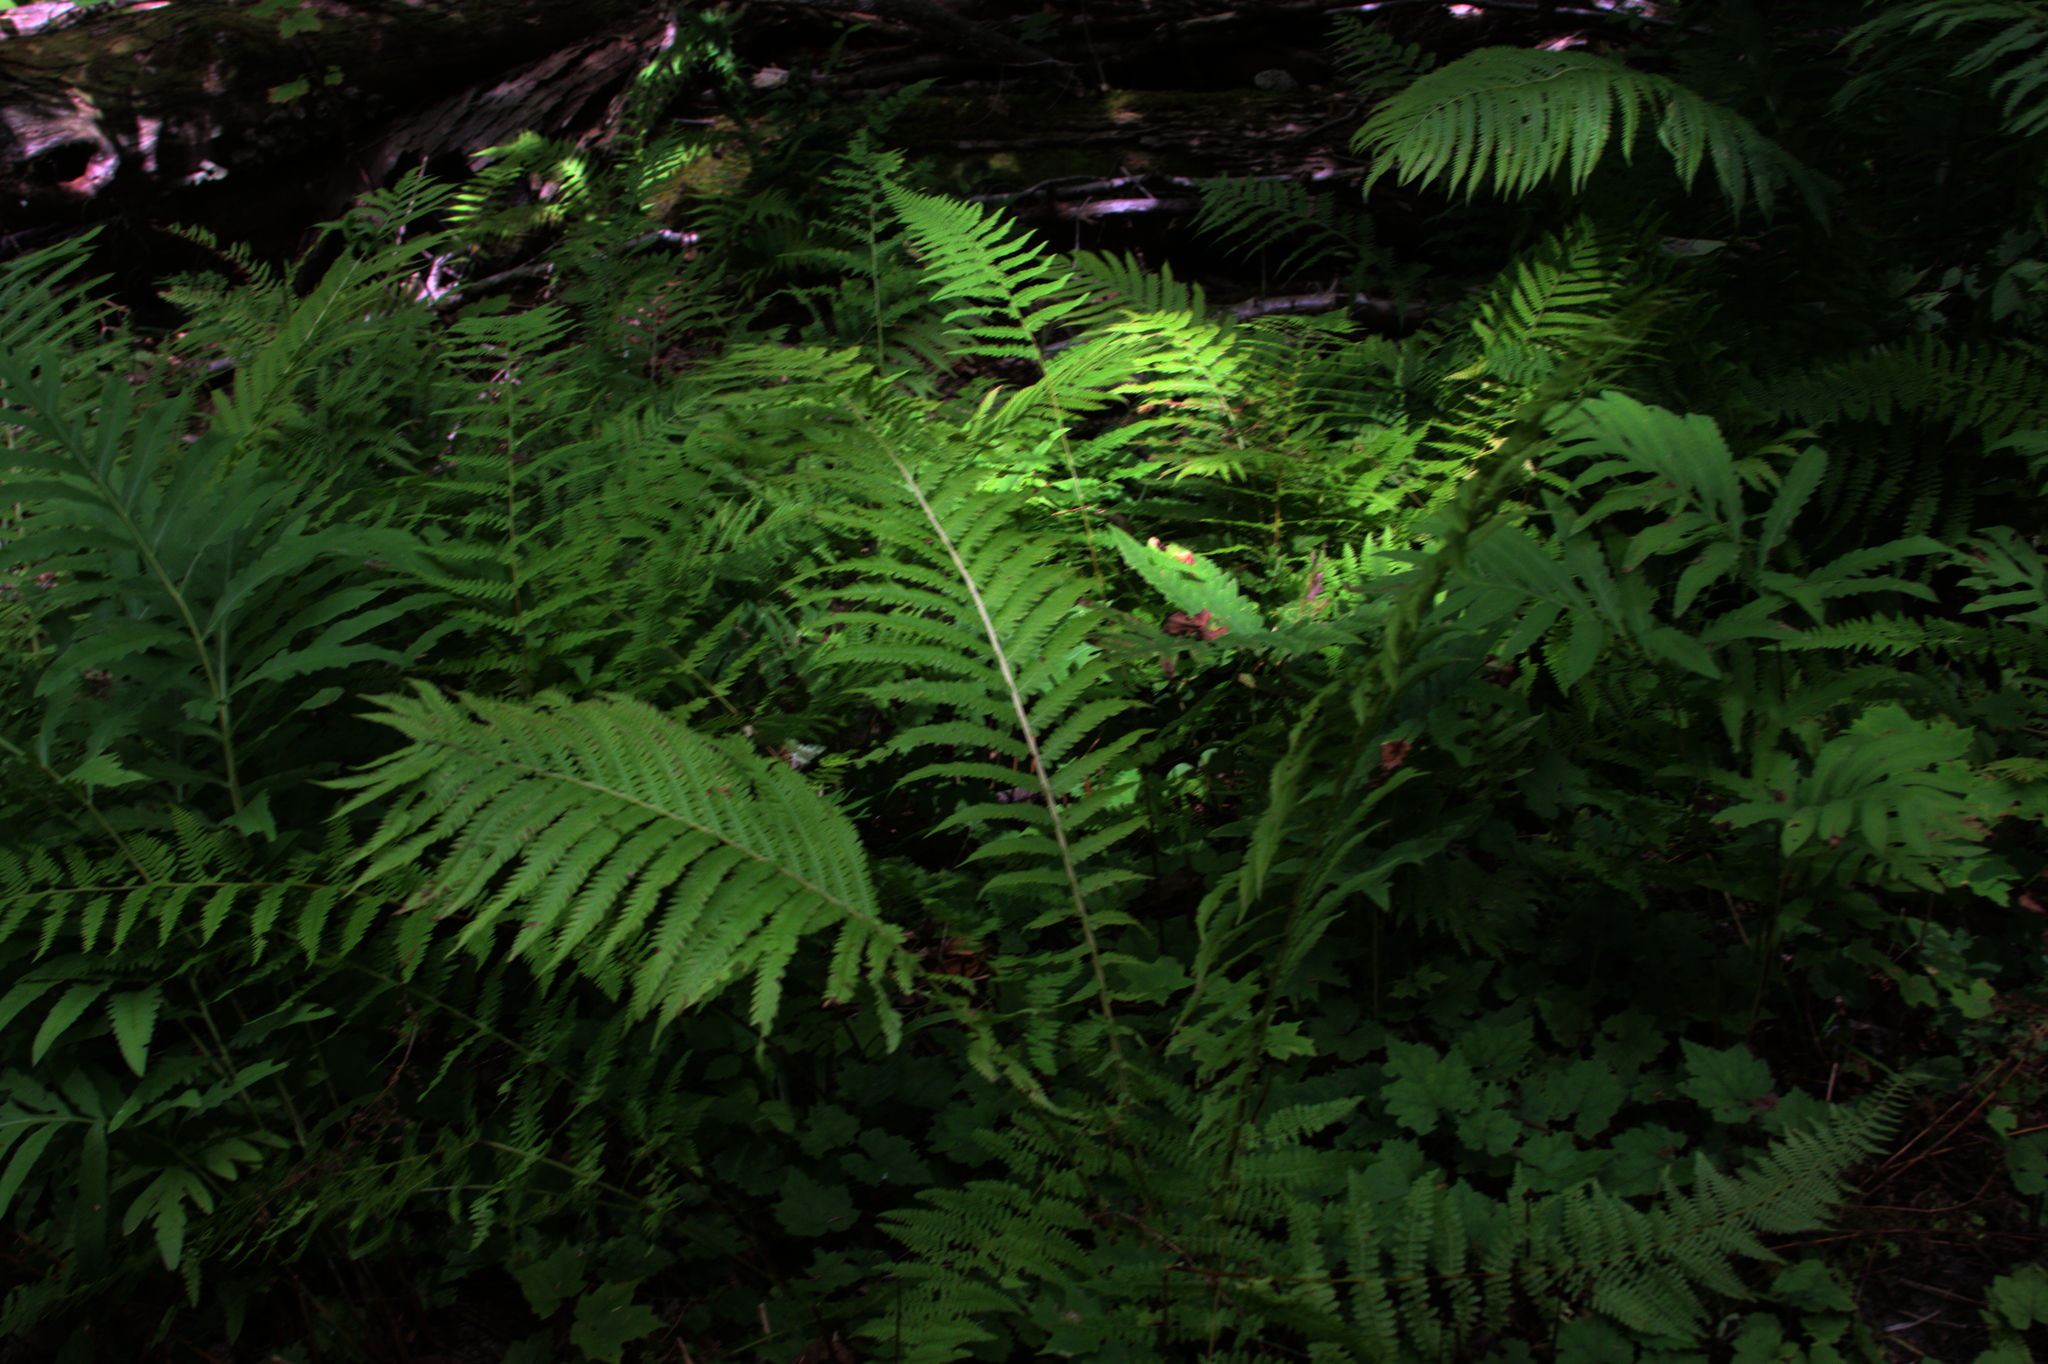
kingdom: Plantae
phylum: Tracheophyta
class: Polypodiopsida
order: Polypodiales
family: Onocleaceae
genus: Matteuccia
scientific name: Matteuccia struthiopteris
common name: Ostrich fern
